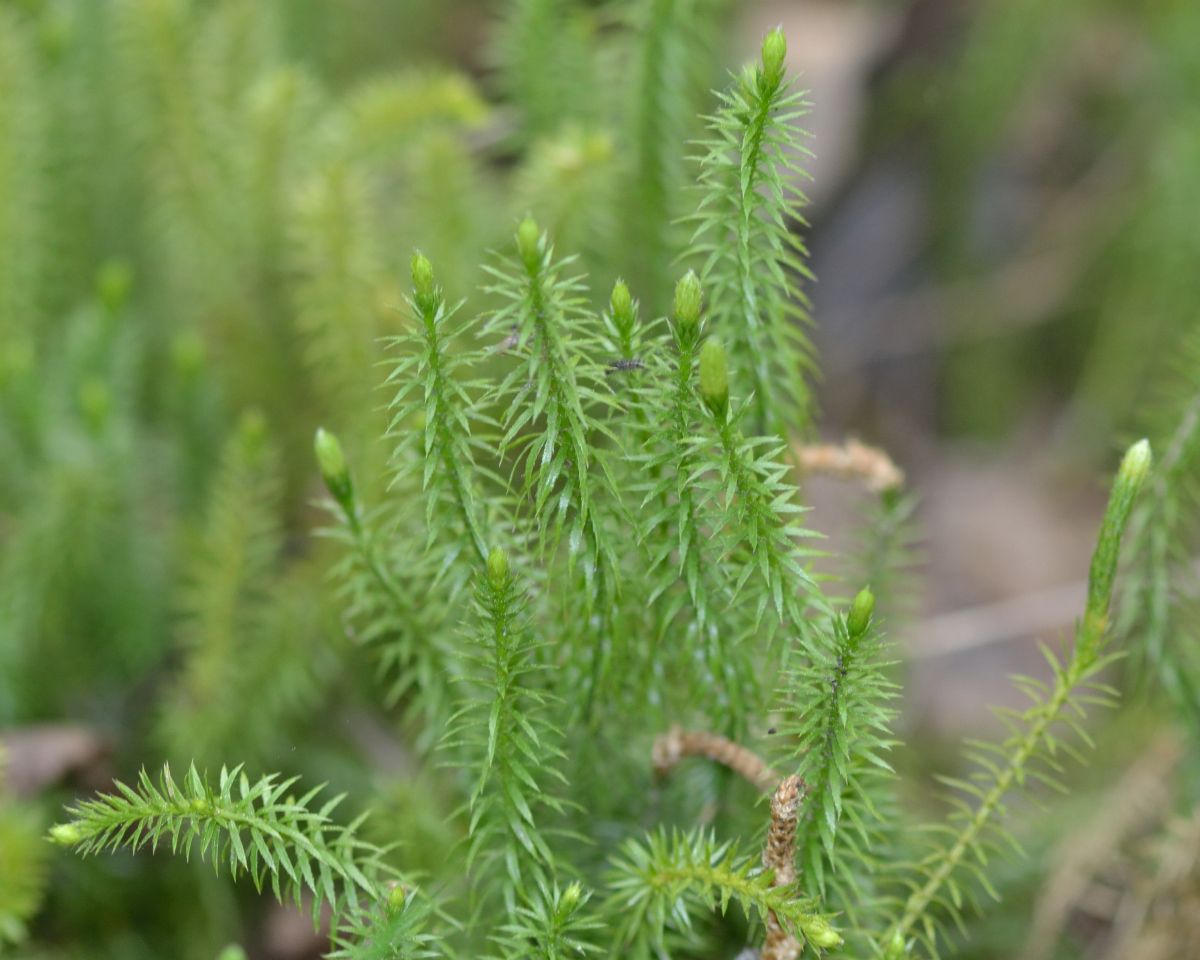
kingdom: Plantae
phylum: Tracheophyta
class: Lycopodiopsida
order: Lycopodiales
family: Lycopodiaceae
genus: Spinulum
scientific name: Spinulum annotinum
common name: Interrupted club-moss
